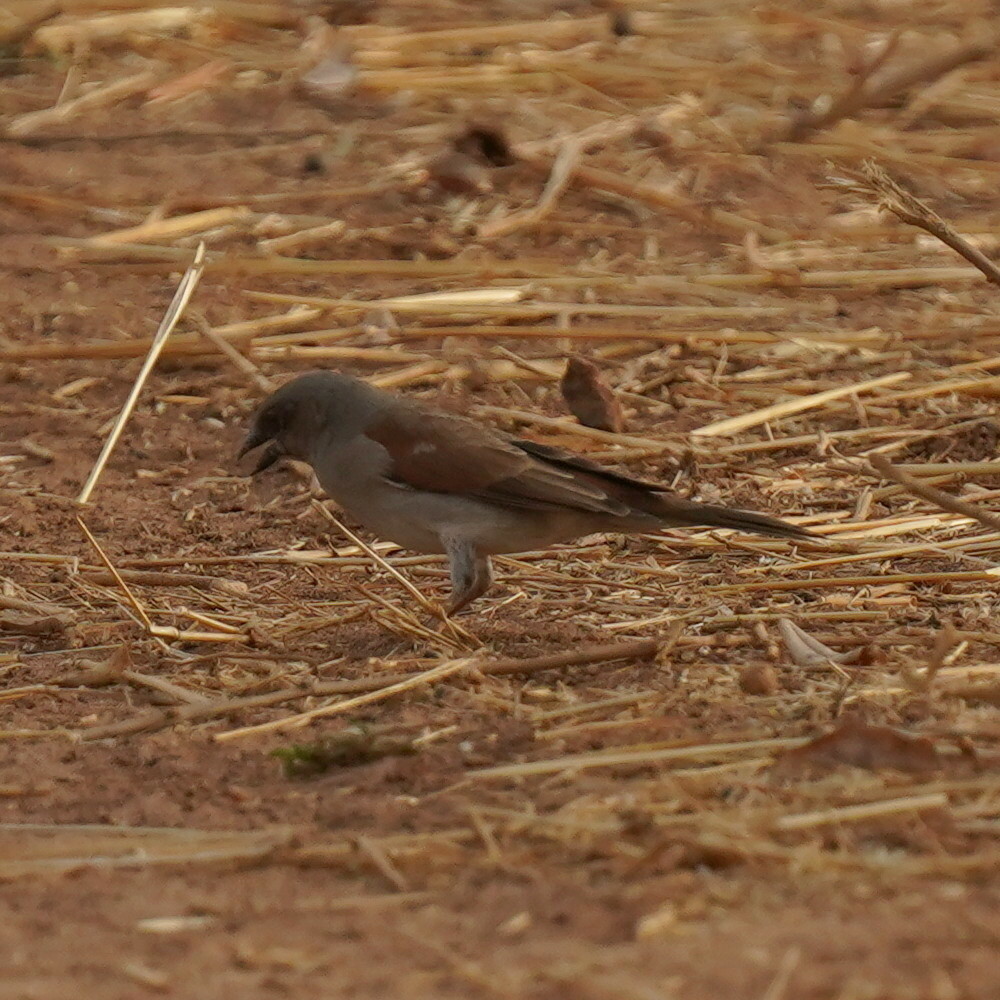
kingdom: Animalia
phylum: Chordata
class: Aves
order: Passeriformes
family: Passeridae
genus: Passer
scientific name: Passer griseus
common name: Northern grey-headed sparrow
